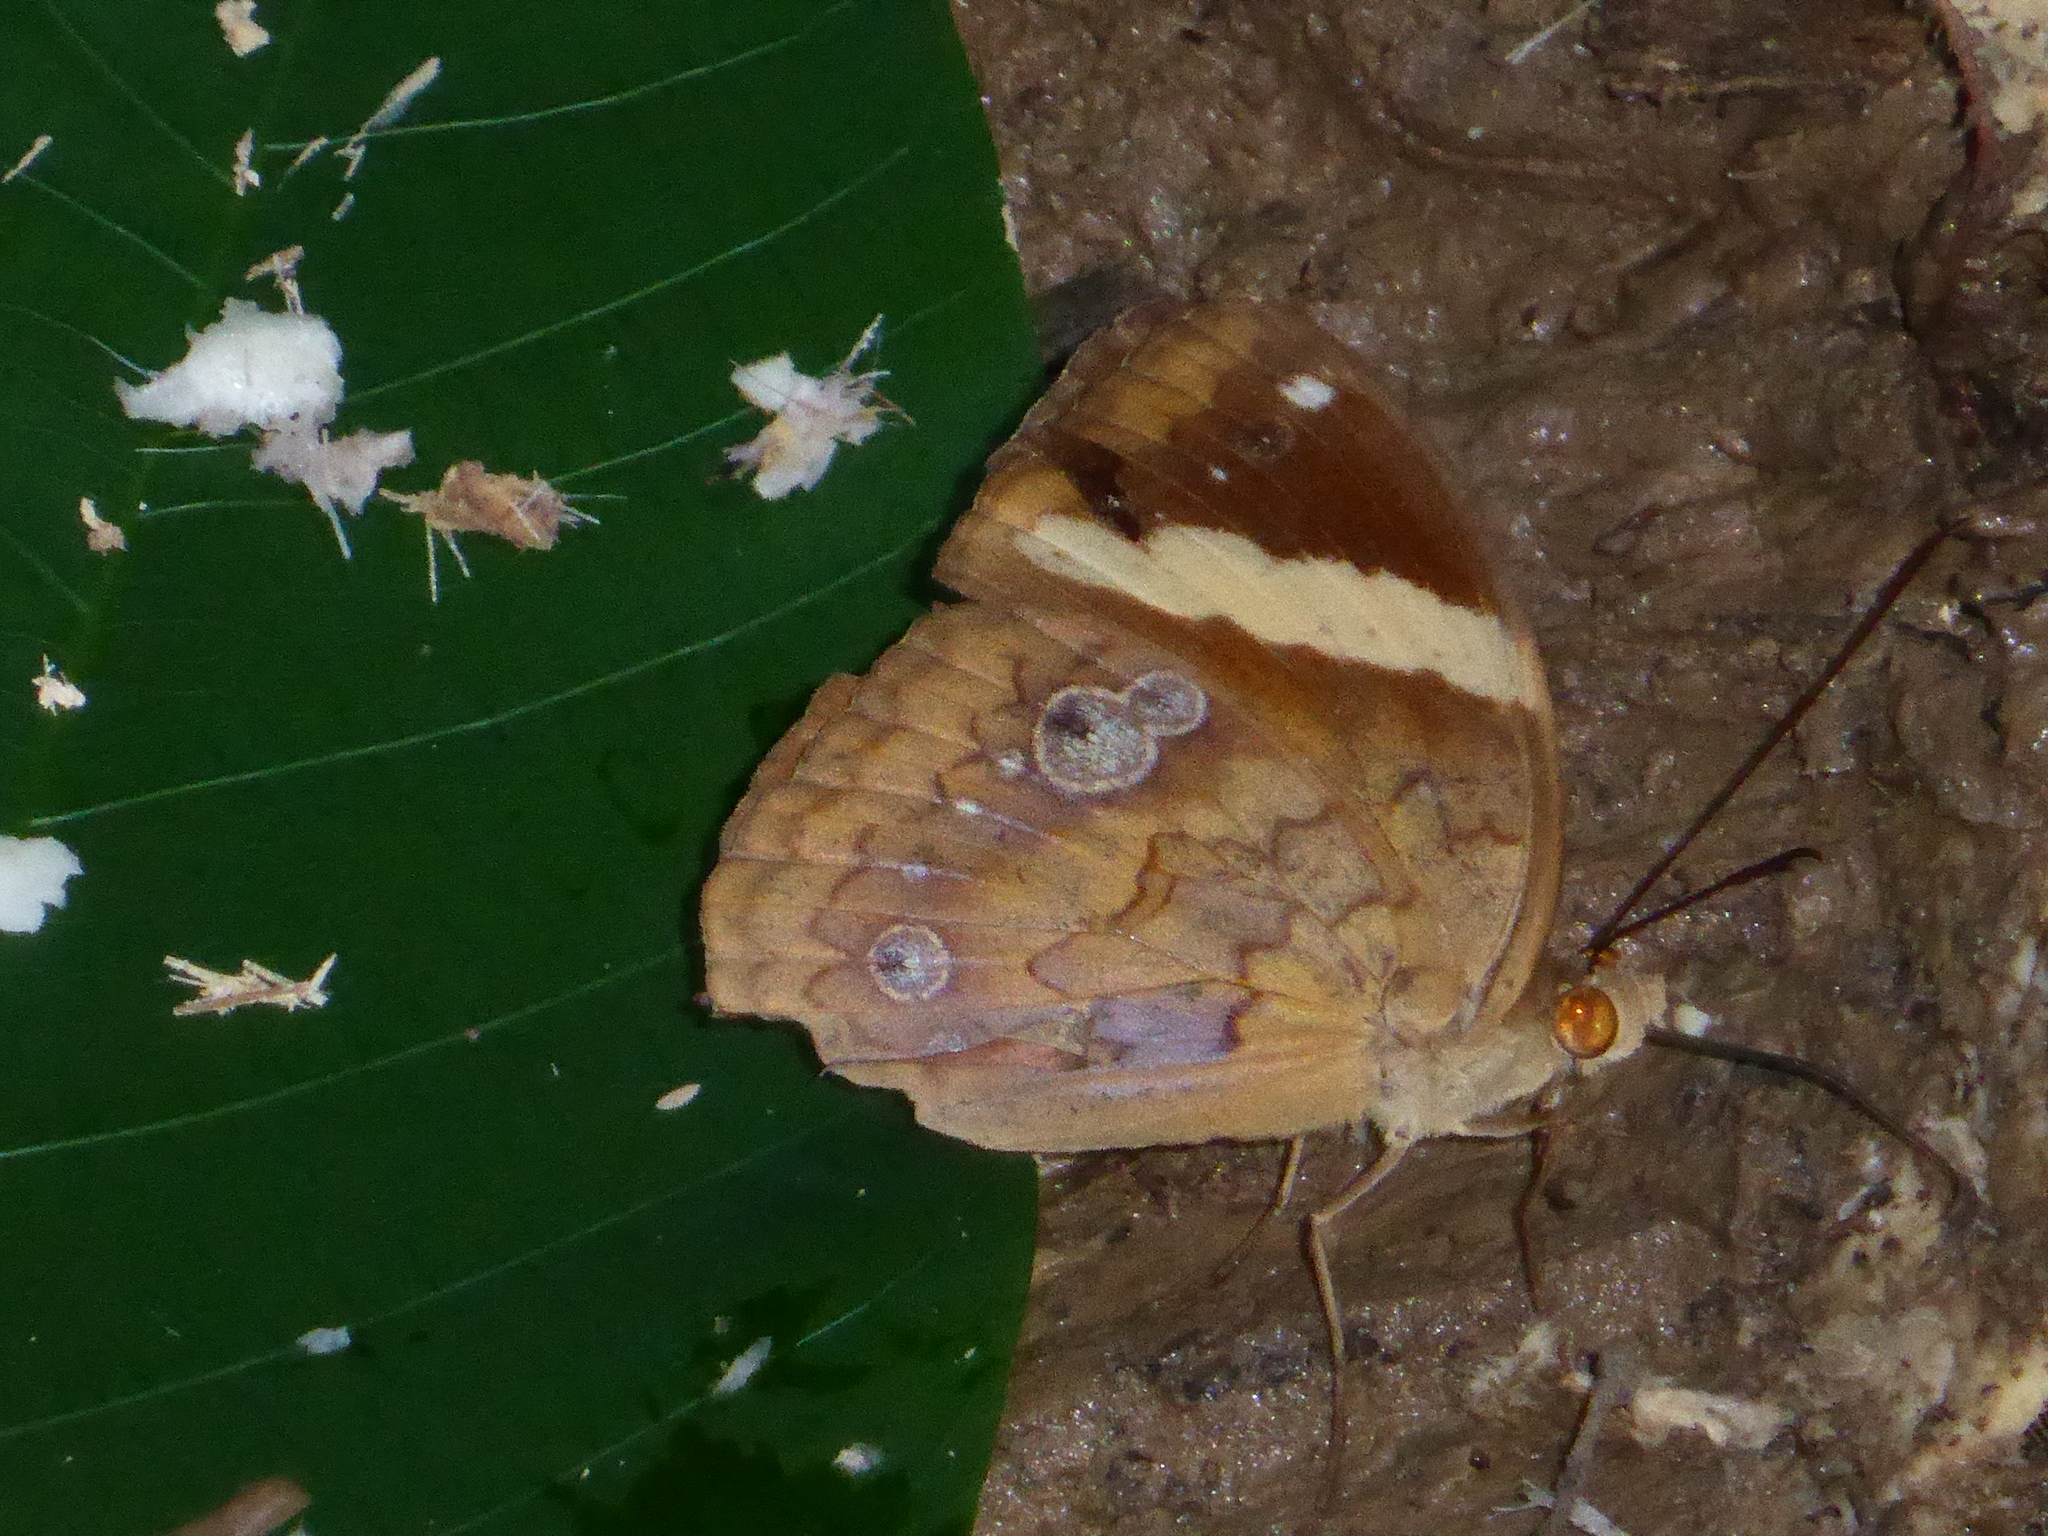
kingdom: Animalia
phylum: Arthropoda
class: Insecta
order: Lepidoptera
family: Nymphalidae
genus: Xanthotaenia
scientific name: Xanthotaenia busiris
